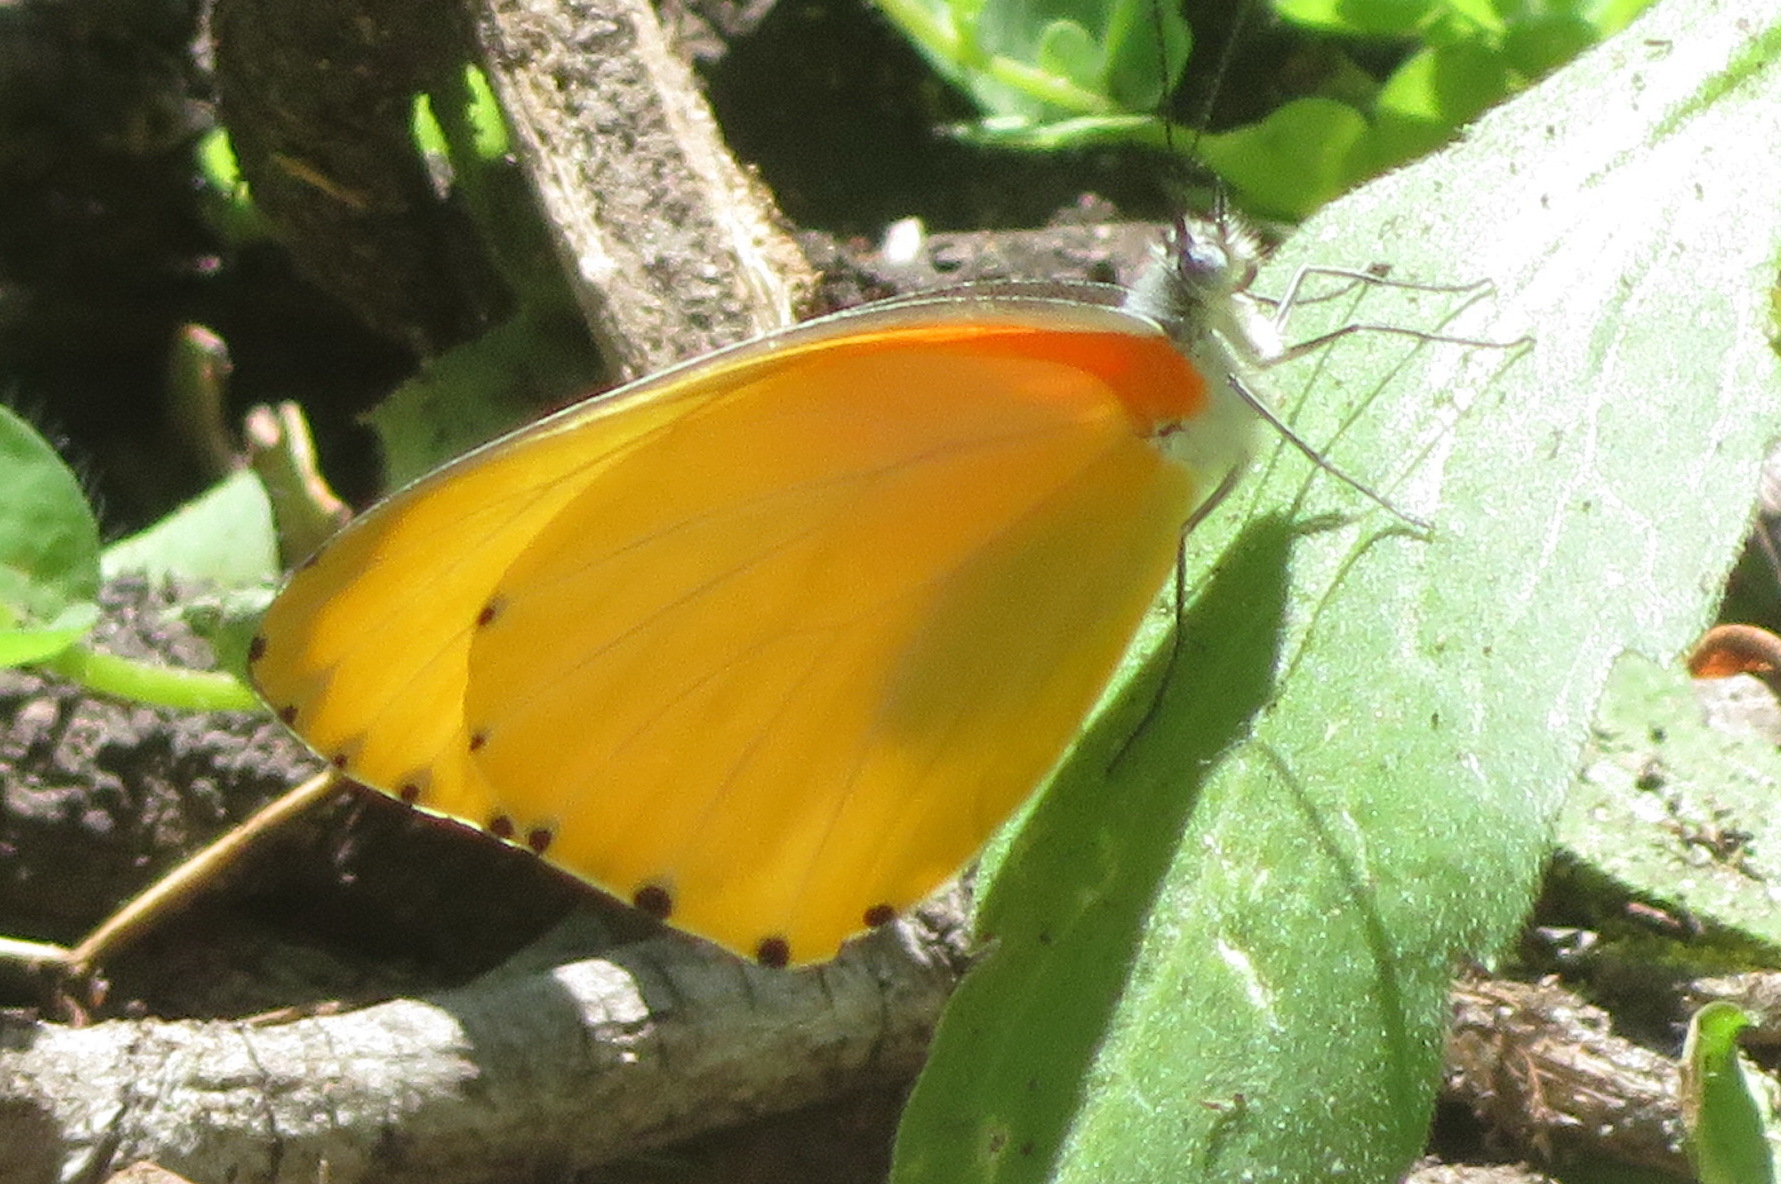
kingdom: Animalia
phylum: Arthropoda
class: Insecta
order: Lepidoptera
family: Pieridae
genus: Mylothris
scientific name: Mylothris agathina
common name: Eastern dotted border
